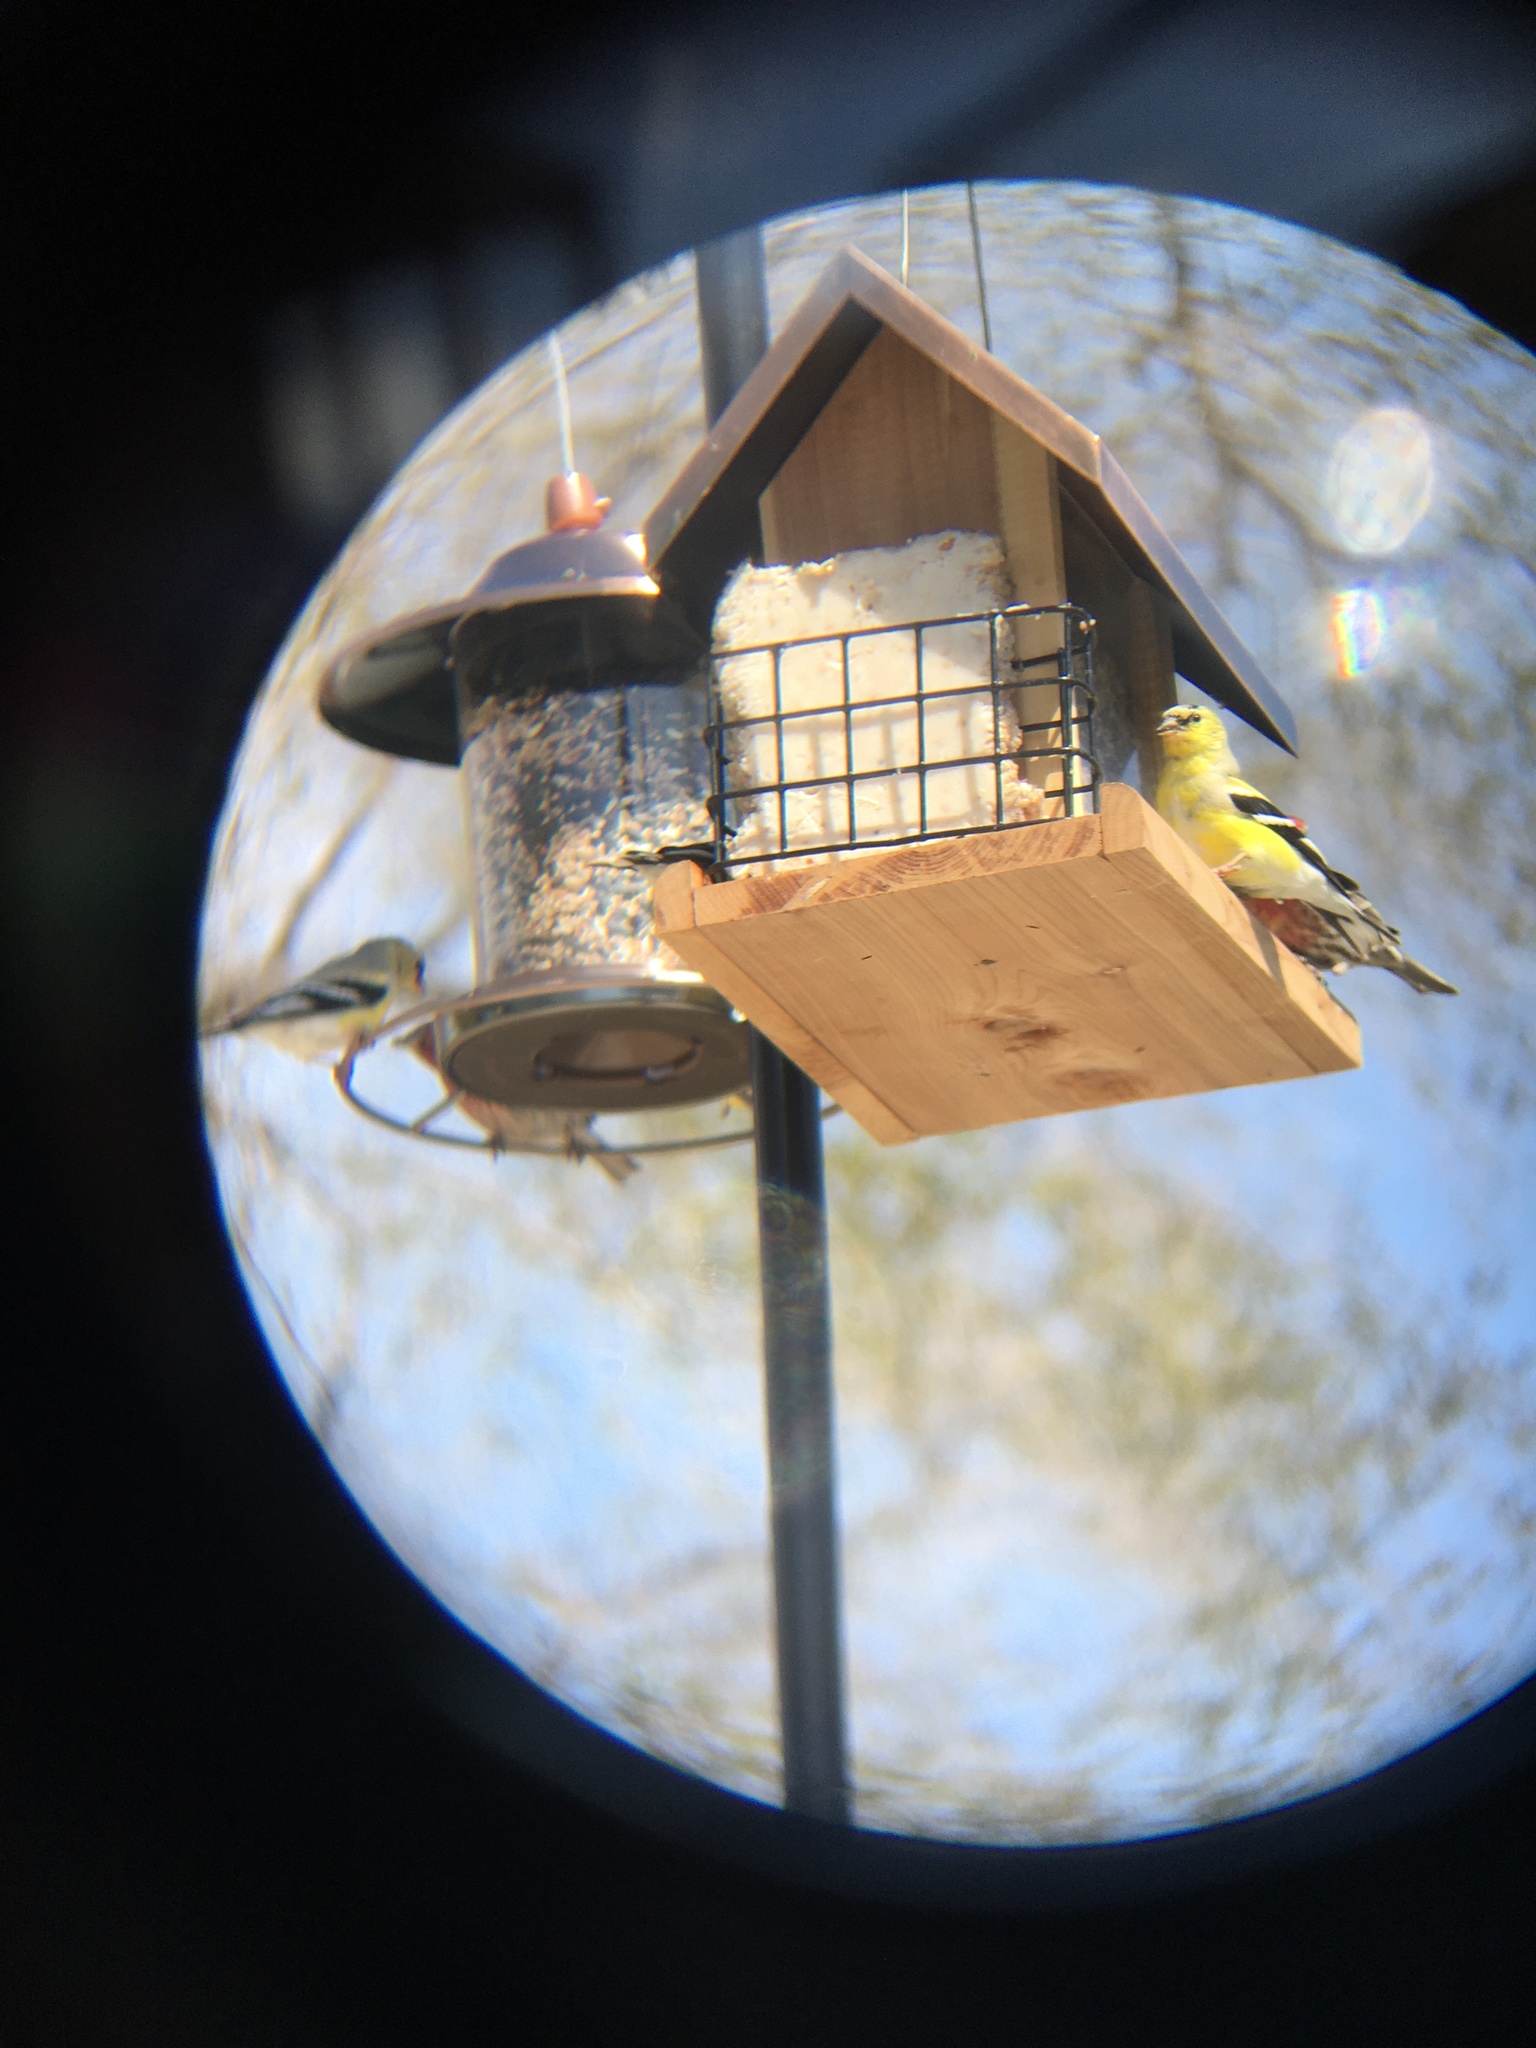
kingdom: Animalia
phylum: Chordata
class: Aves
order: Passeriformes
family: Fringillidae
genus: Spinus
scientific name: Spinus tristis
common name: American goldfinch
